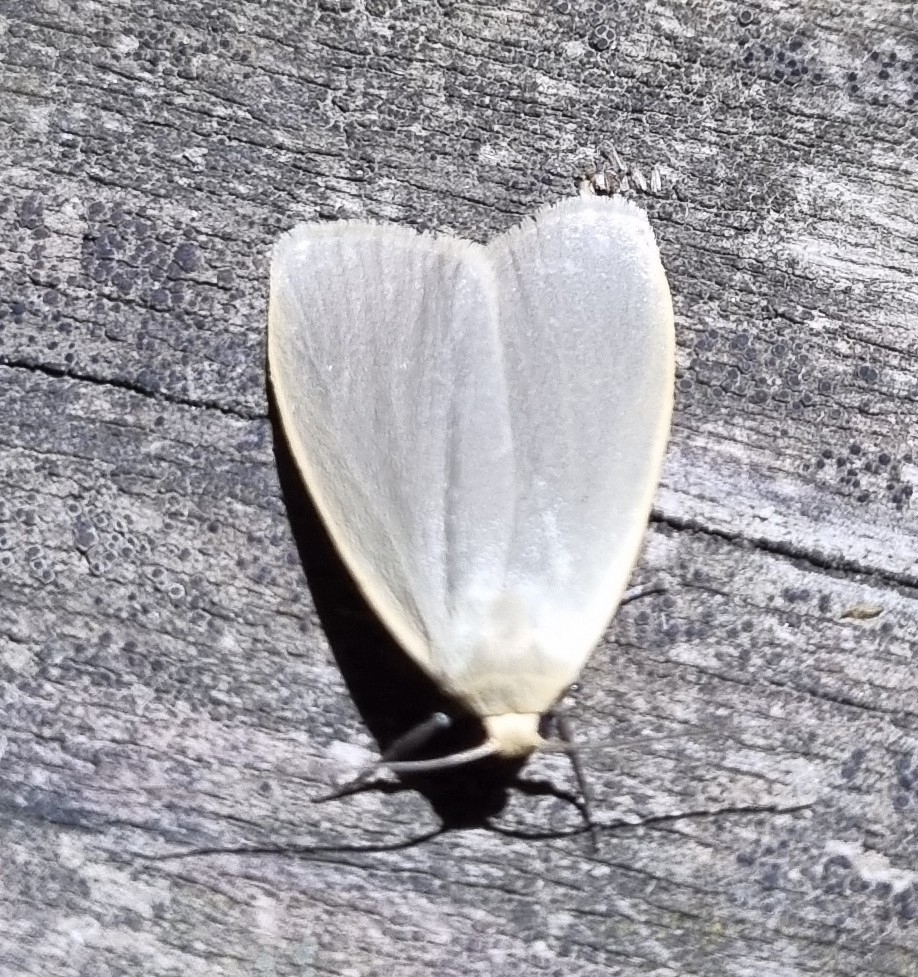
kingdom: Animalia
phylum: Arthropoda
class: Insecta
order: Lepidoptera
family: Erebidae
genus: Collita
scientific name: Collita griseola
